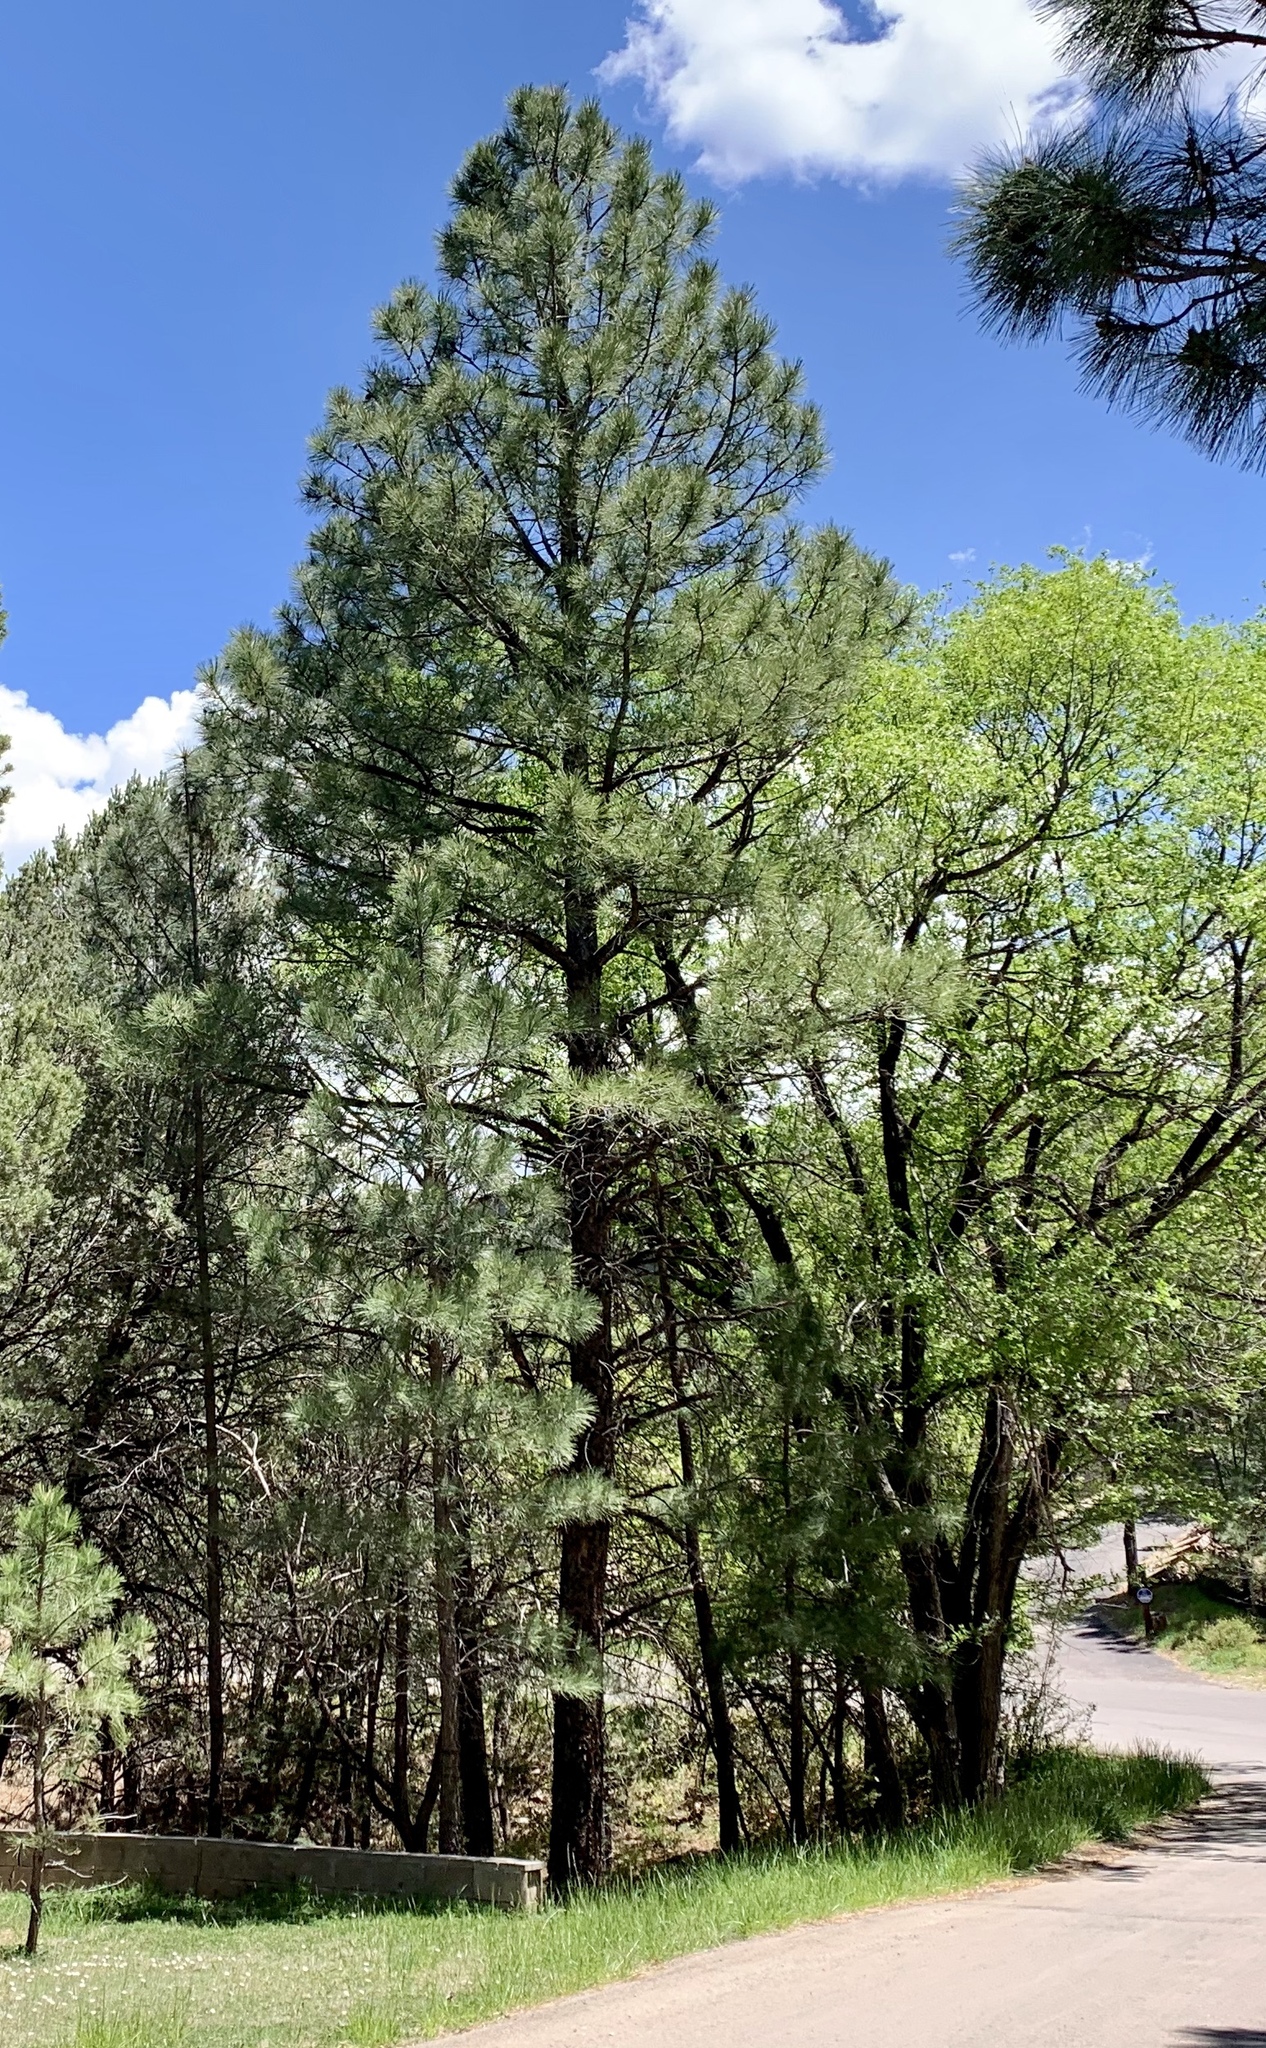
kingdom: Plantae
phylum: Tracheophyta
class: Pinopsida
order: Pinales
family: Pinaceae
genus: Pinus
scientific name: Pinus ponderosa
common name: Western yellow-pine
